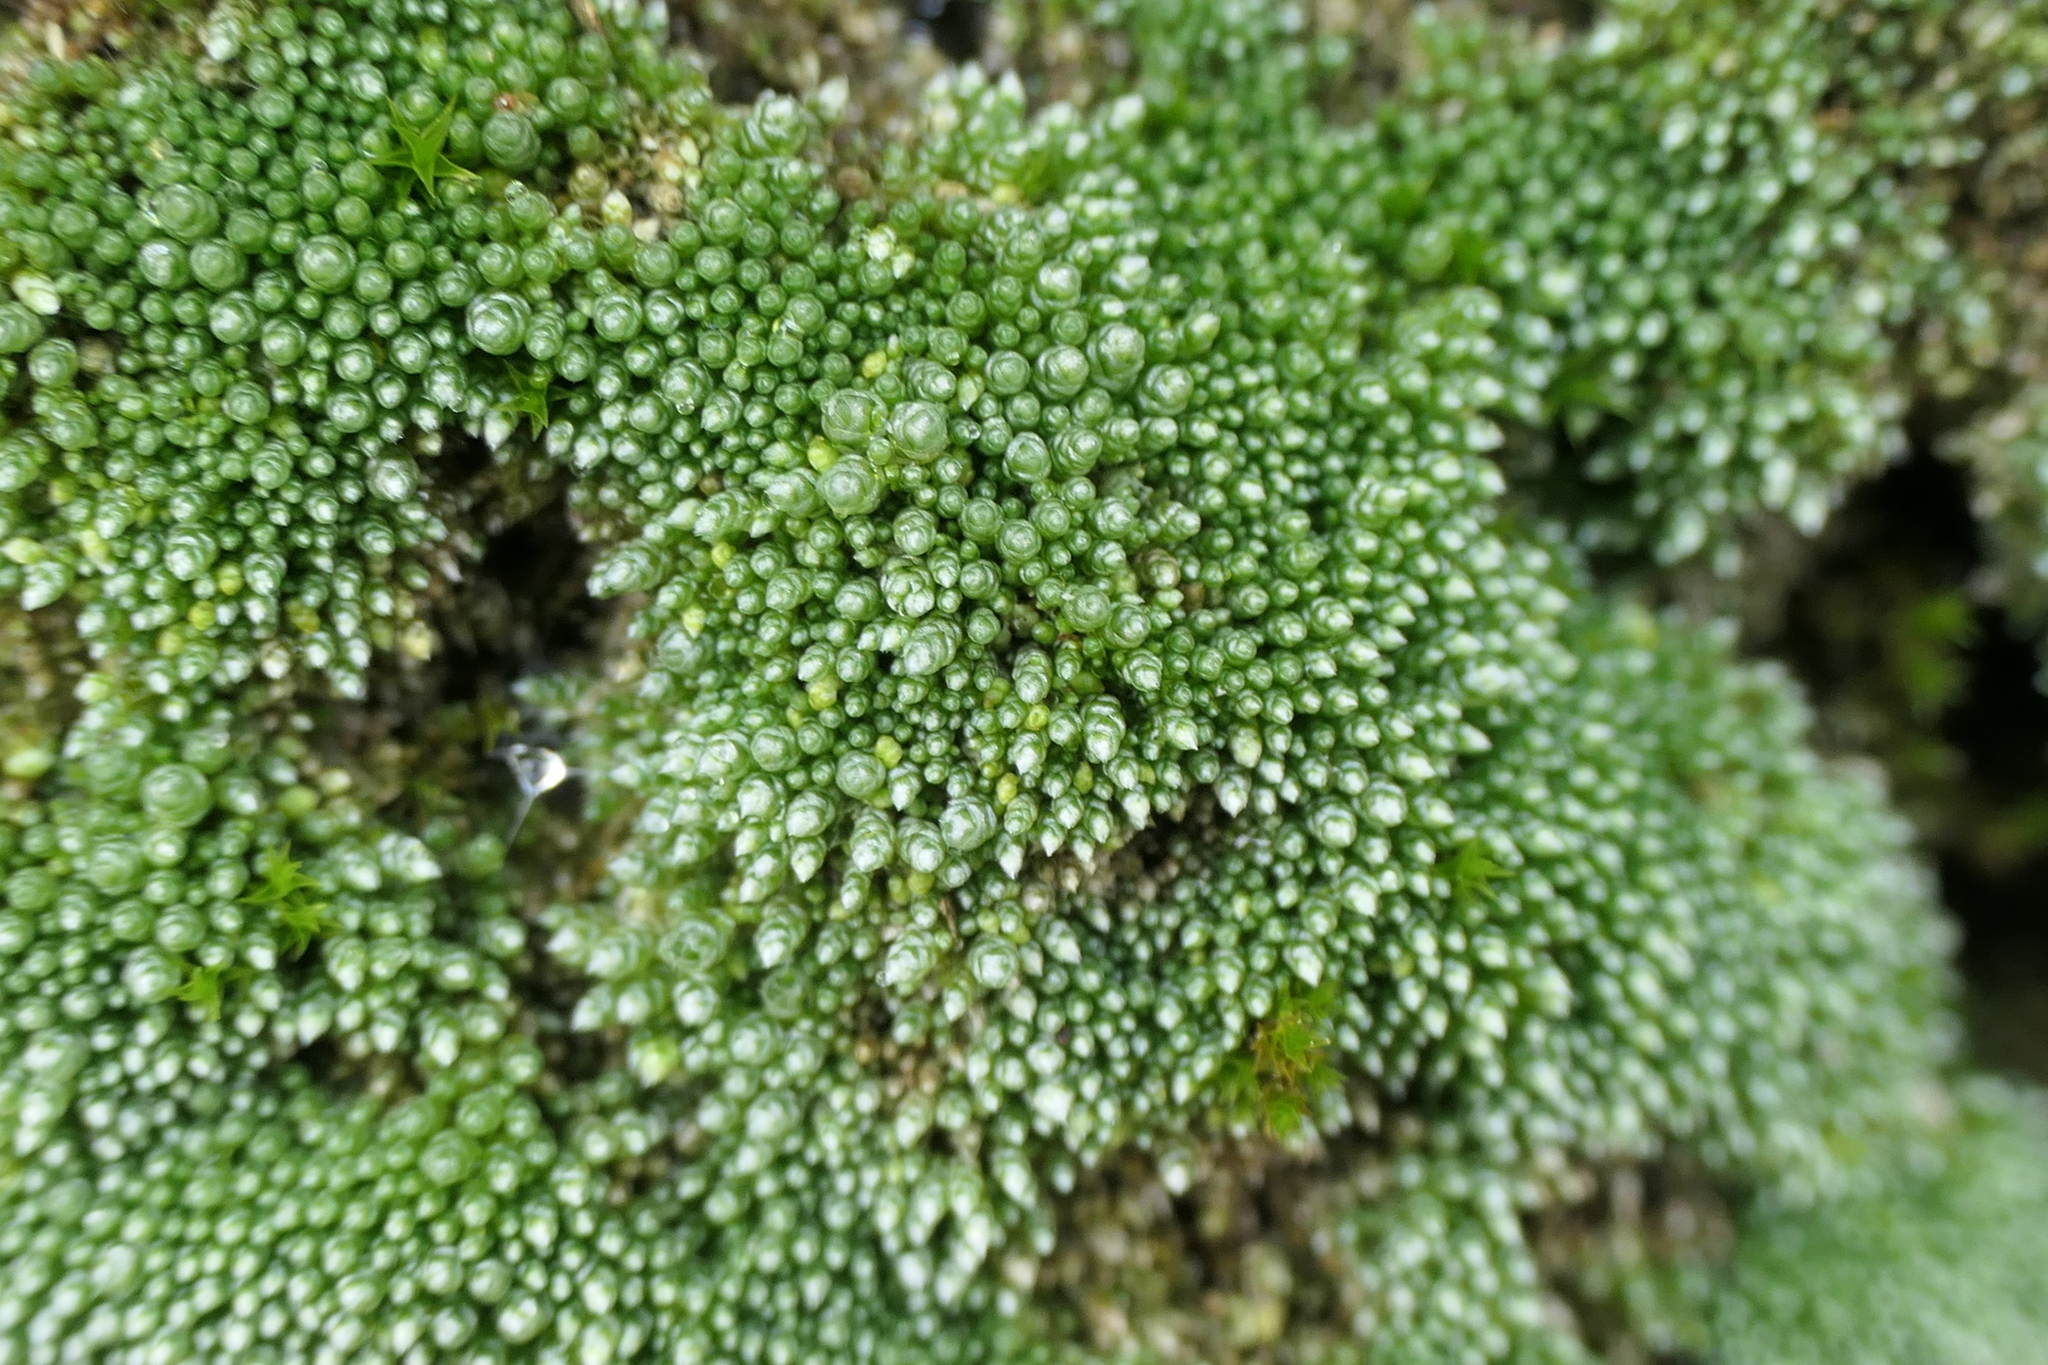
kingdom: Plantae
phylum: Bryophyta
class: Bryopsida
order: Bryales
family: Bryaceae
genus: Bryum
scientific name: Bryum argenteum
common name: Silver-moss
